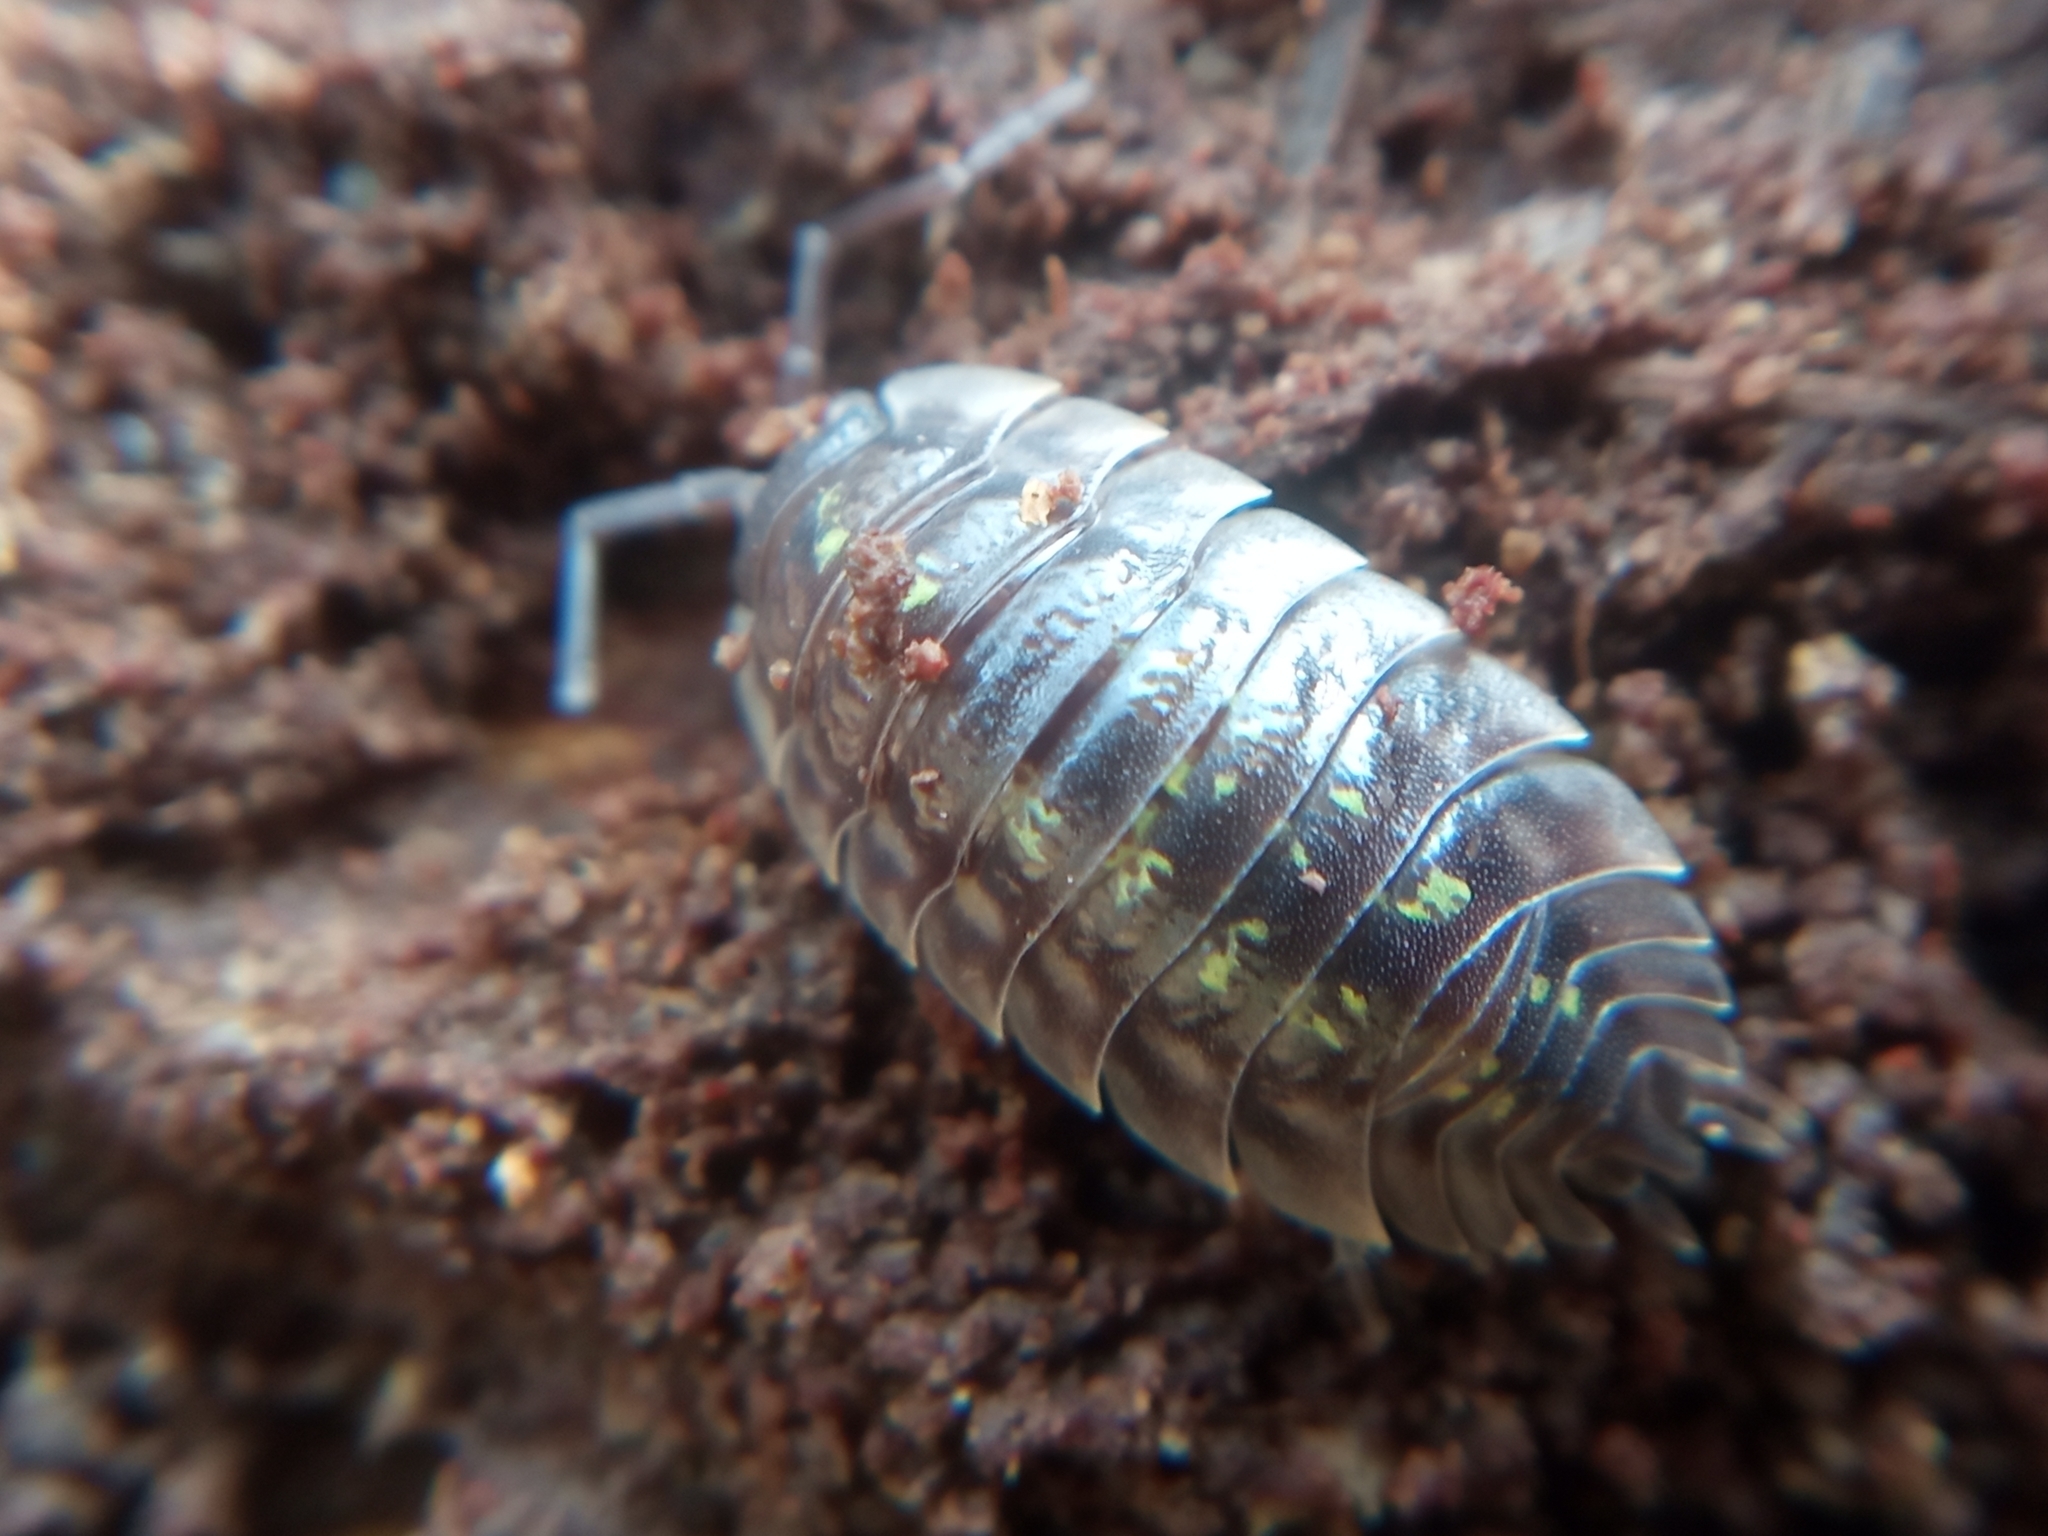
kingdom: Animalia
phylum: Arthropoda
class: Malacostraca
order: Isopoda
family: Oniscidae
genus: Oniscus
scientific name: Oniscus asellus
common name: Common shiny woodlouse
